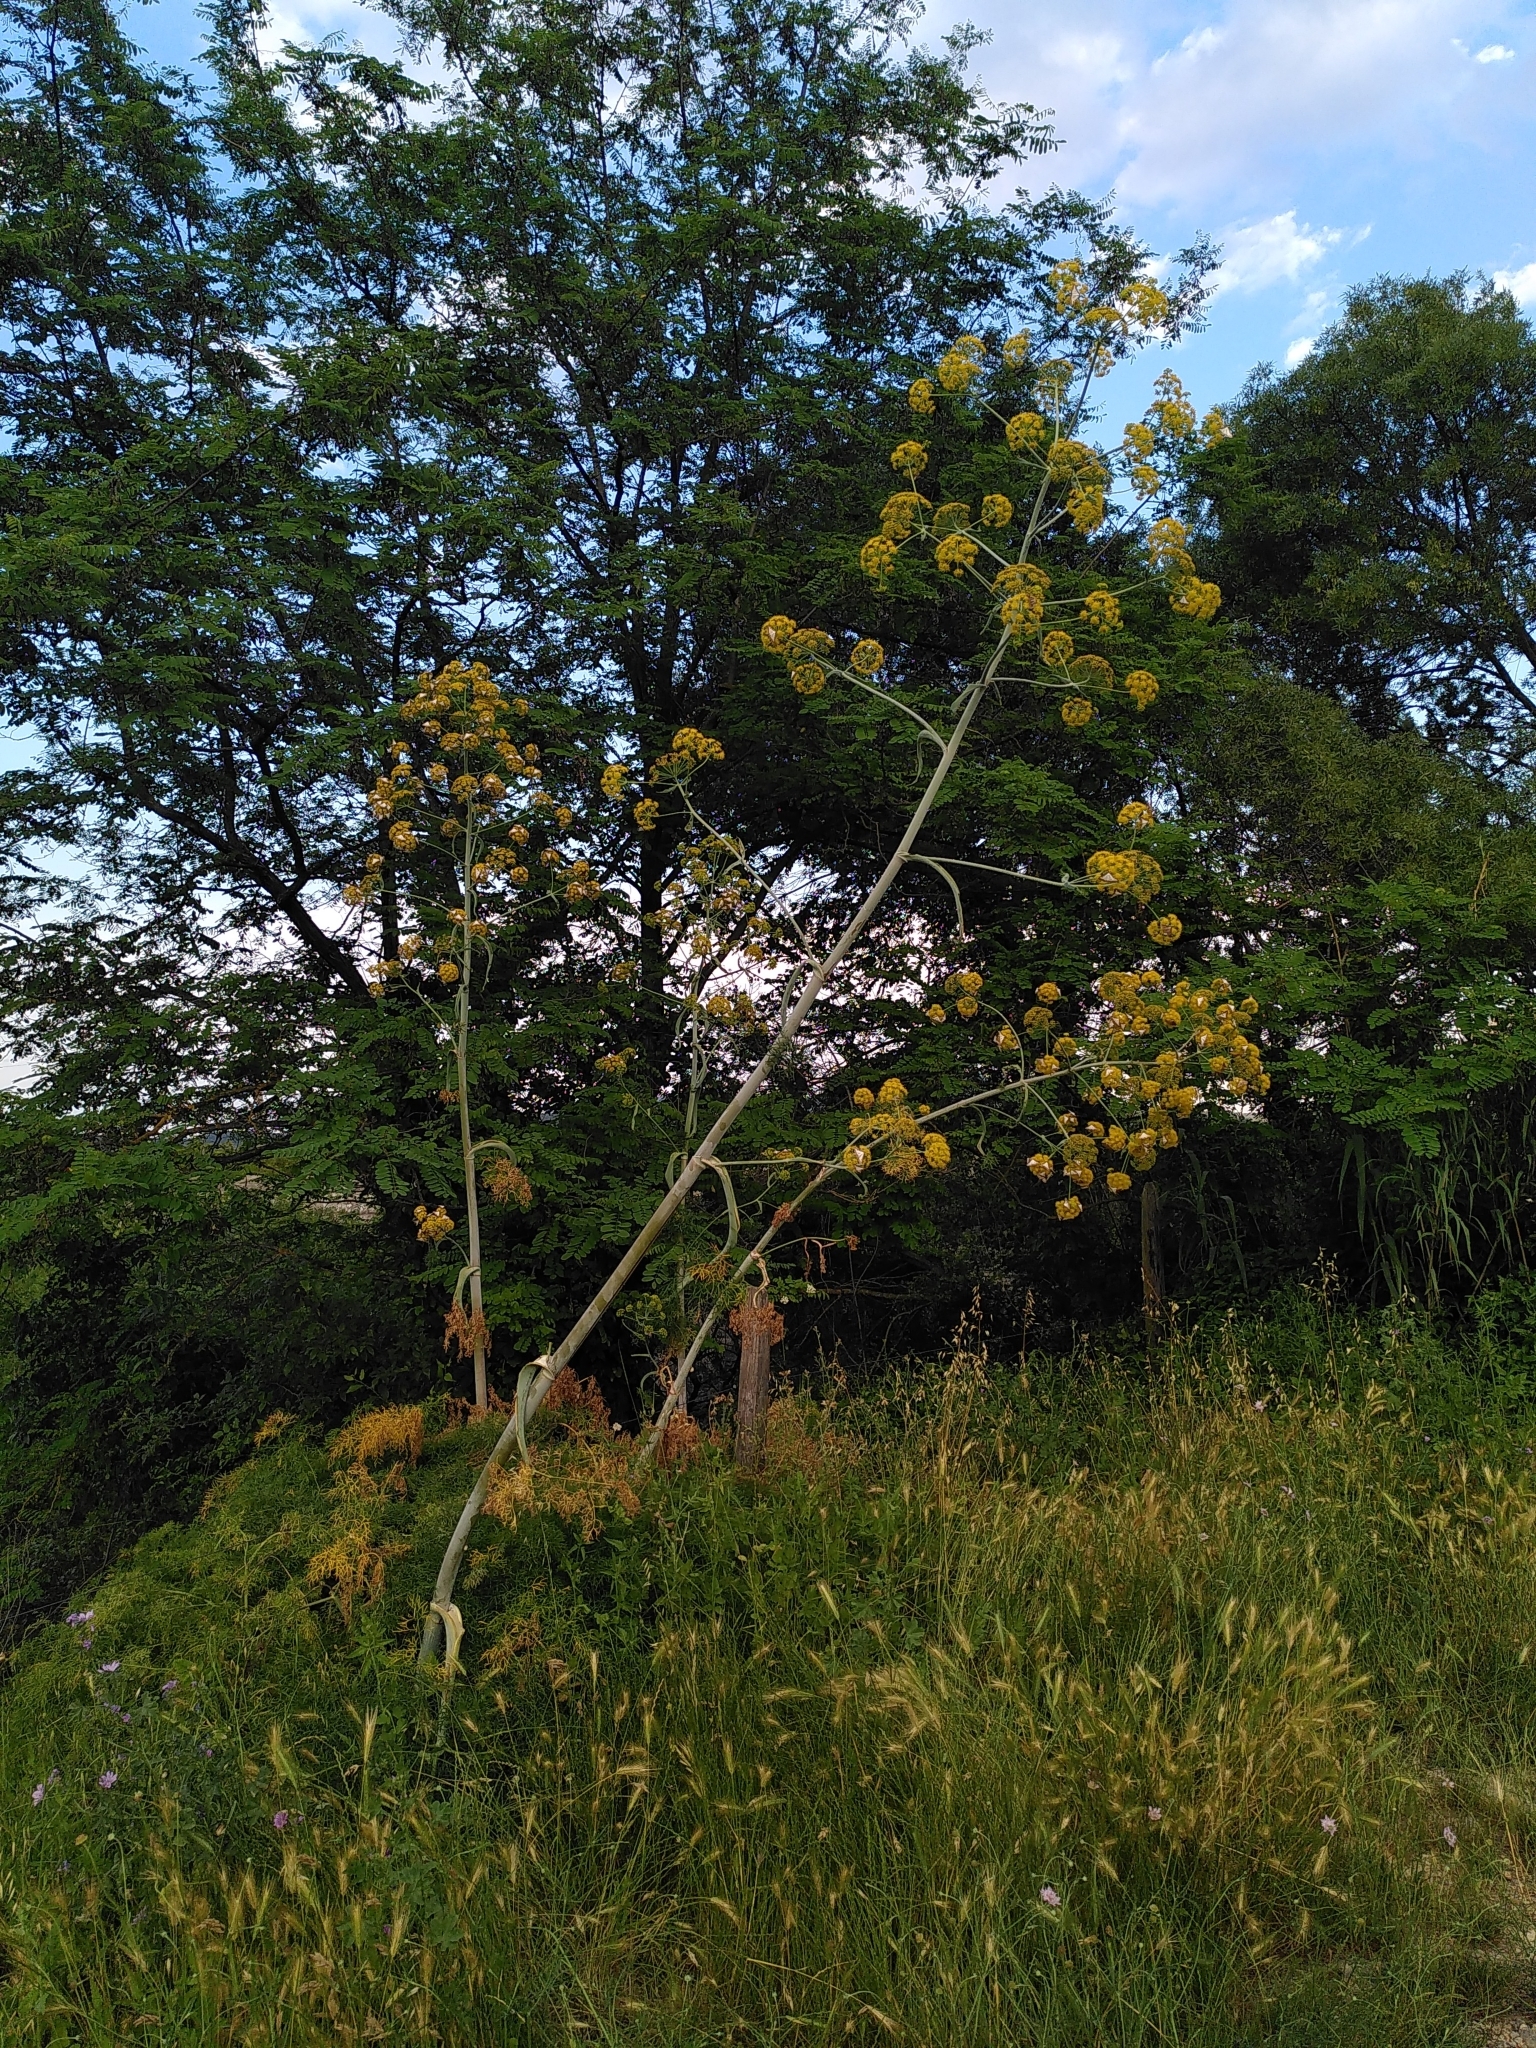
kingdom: Plantae
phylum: Tracheophyta
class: Magnoliopsida
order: Apiales
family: Apiaceae
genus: Ferula
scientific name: Ferula glauca
